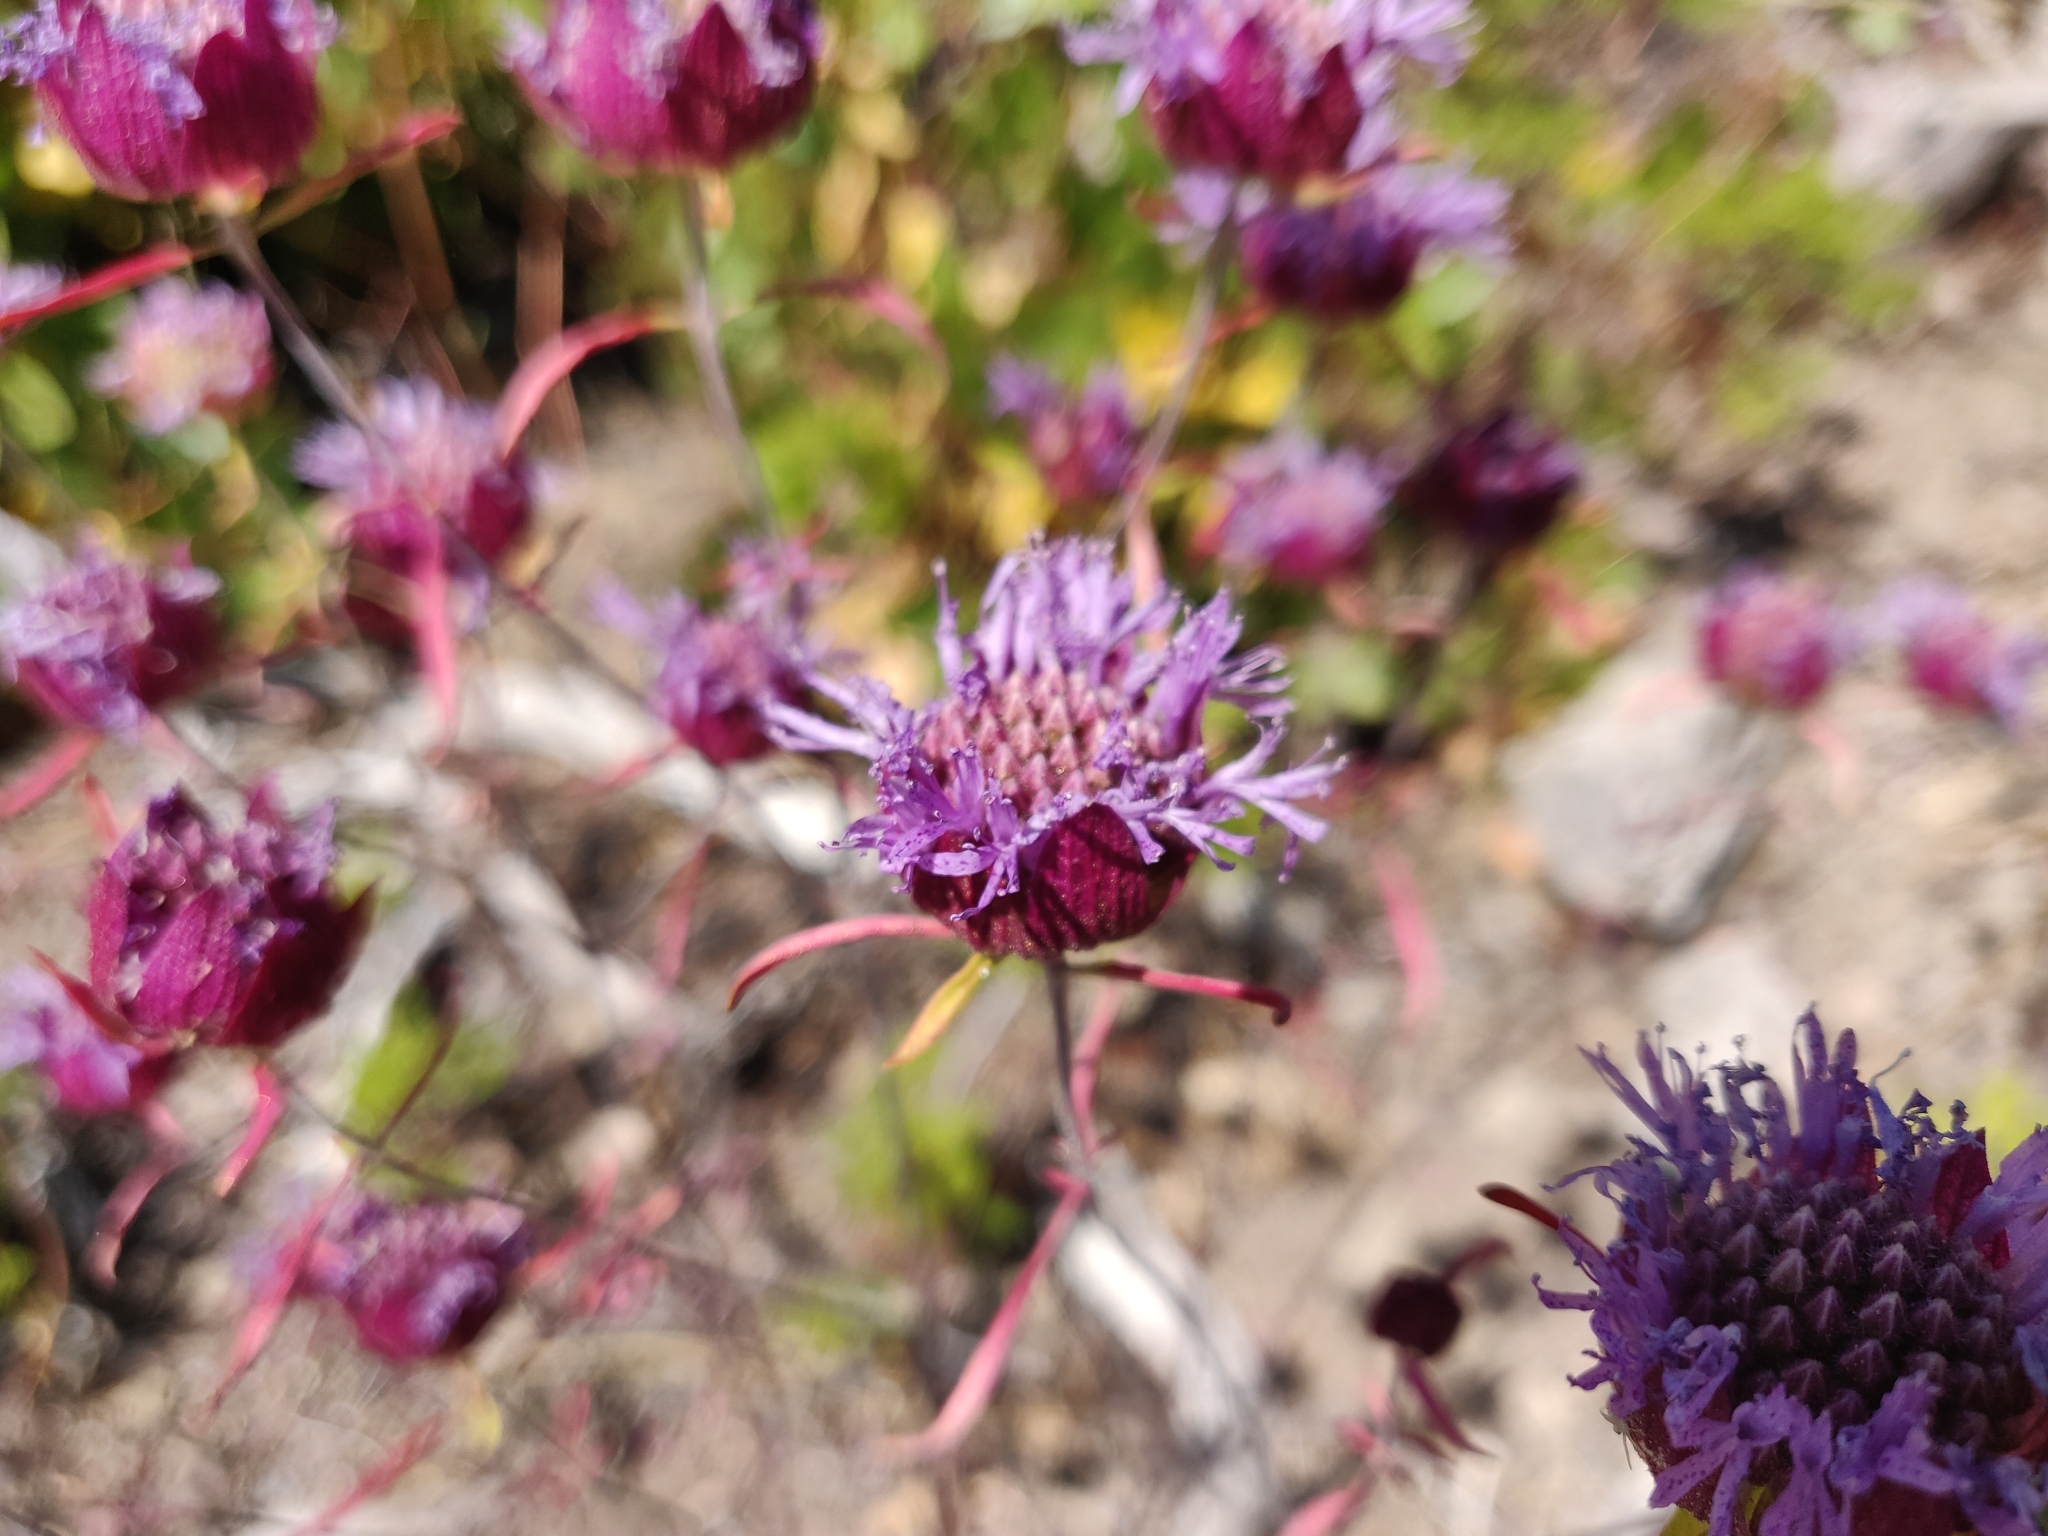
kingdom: Plantae
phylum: Tracheophyta
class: Magnoliopsida
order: Lamiales
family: Lamiaceae
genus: Monardella
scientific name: Monardella breweri
